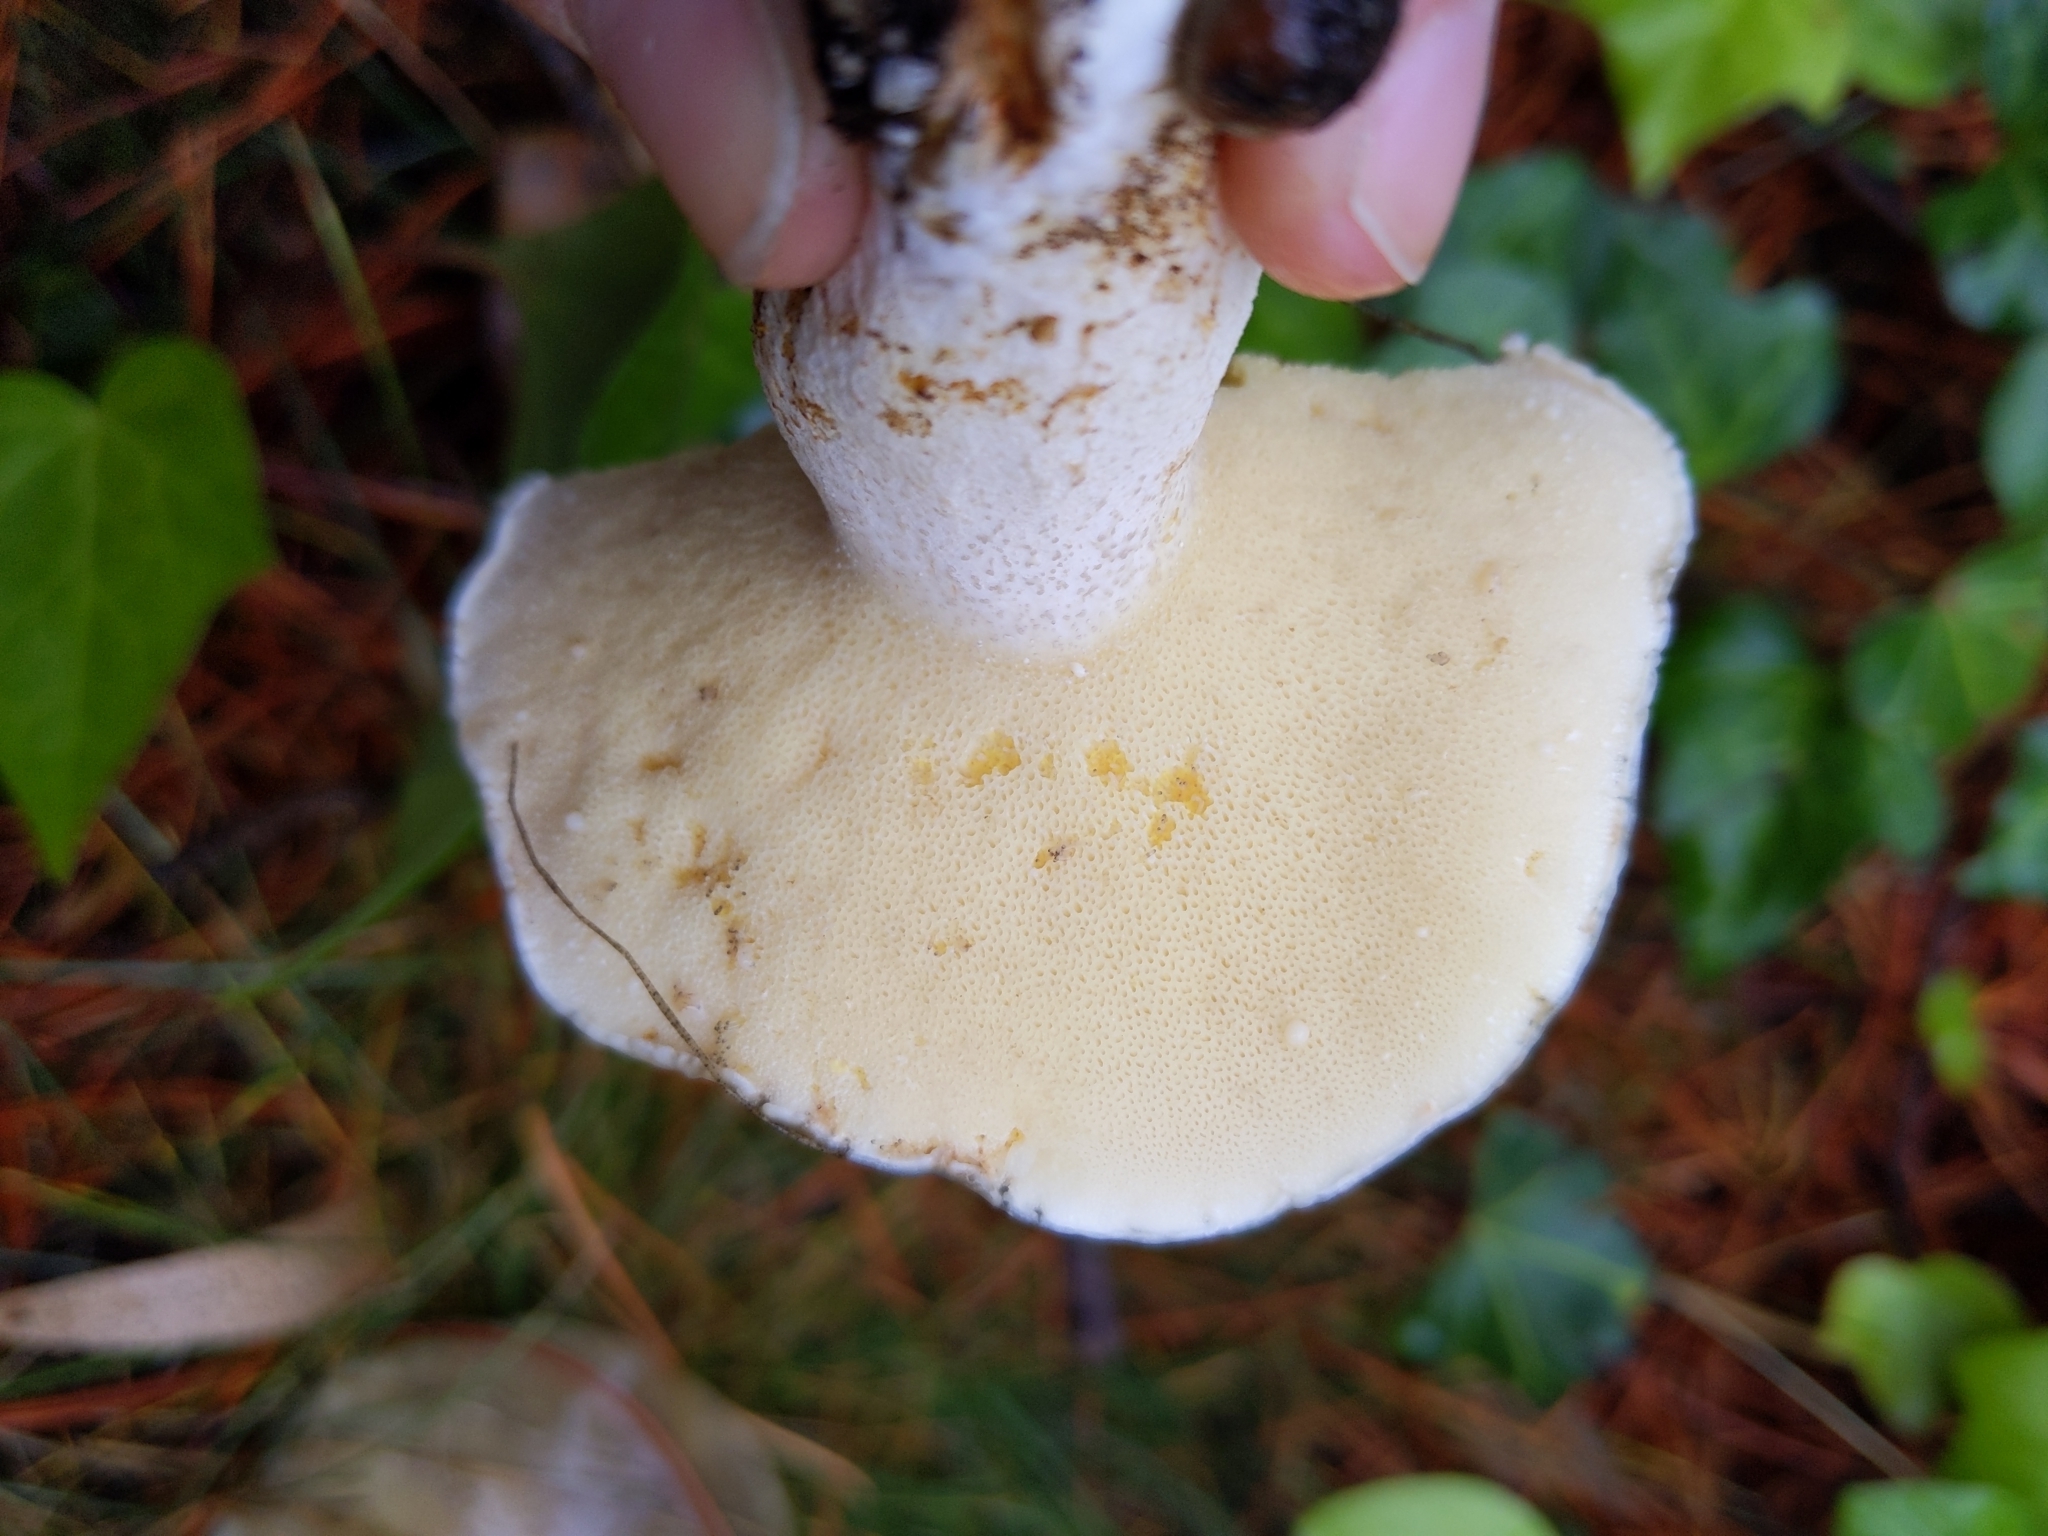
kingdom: Fungi
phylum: Basidiomycota
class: Agaricomycetes
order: Boletales
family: Suillaceae
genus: Suillus
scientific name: Suillus pungens
